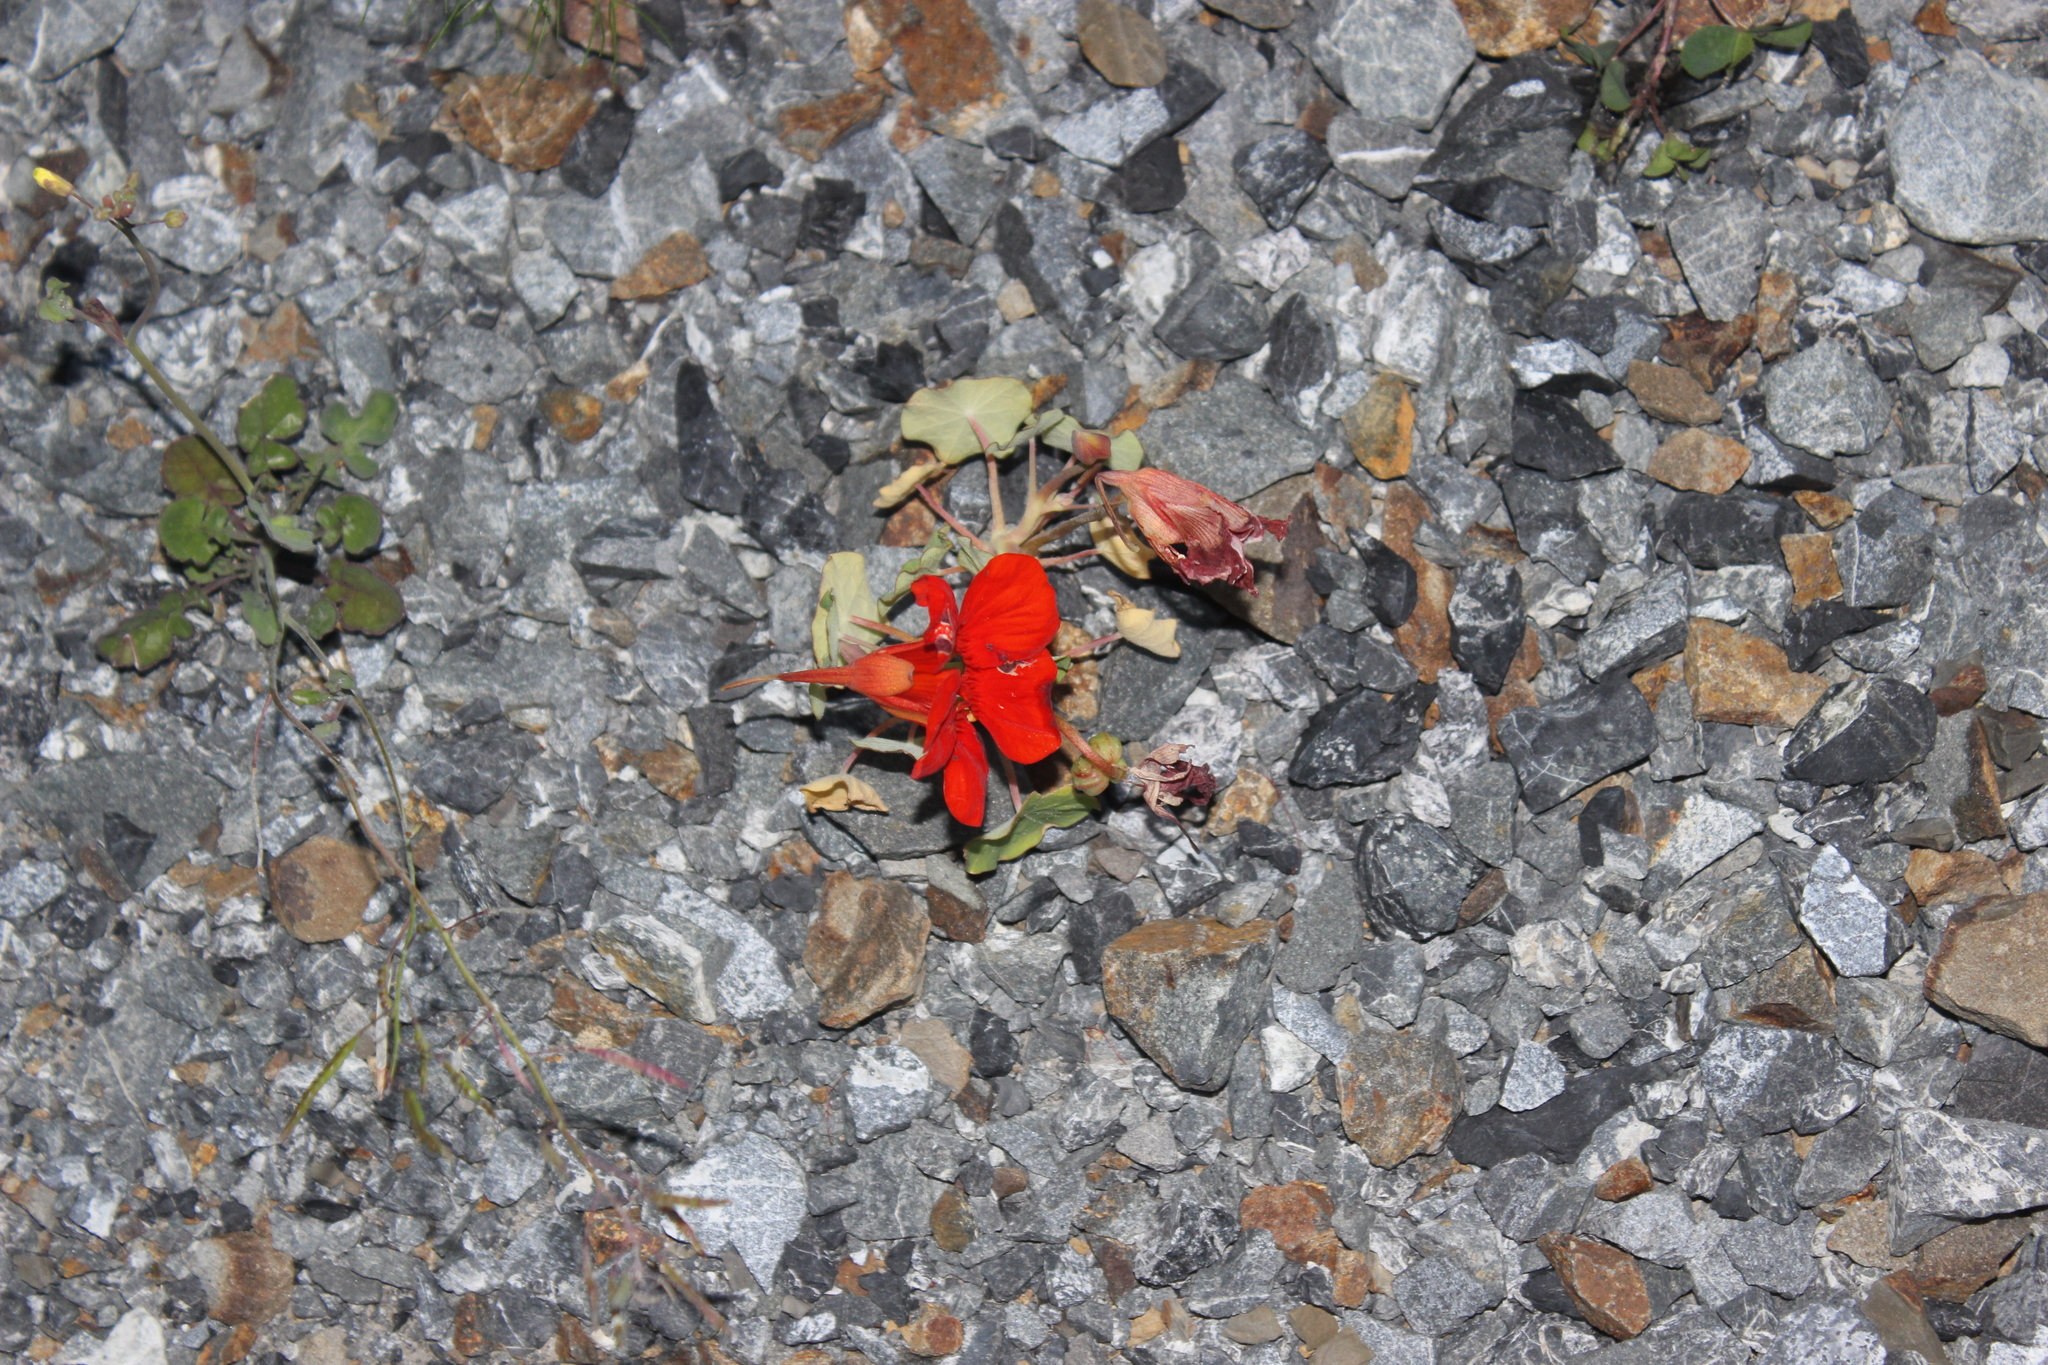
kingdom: Plantae
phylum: Tracheophyta
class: Magnoliopsida
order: Brassicales
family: Tropaeolaceae
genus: Tropaeolum
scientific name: Tropaeolum majus
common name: Nasturtium
